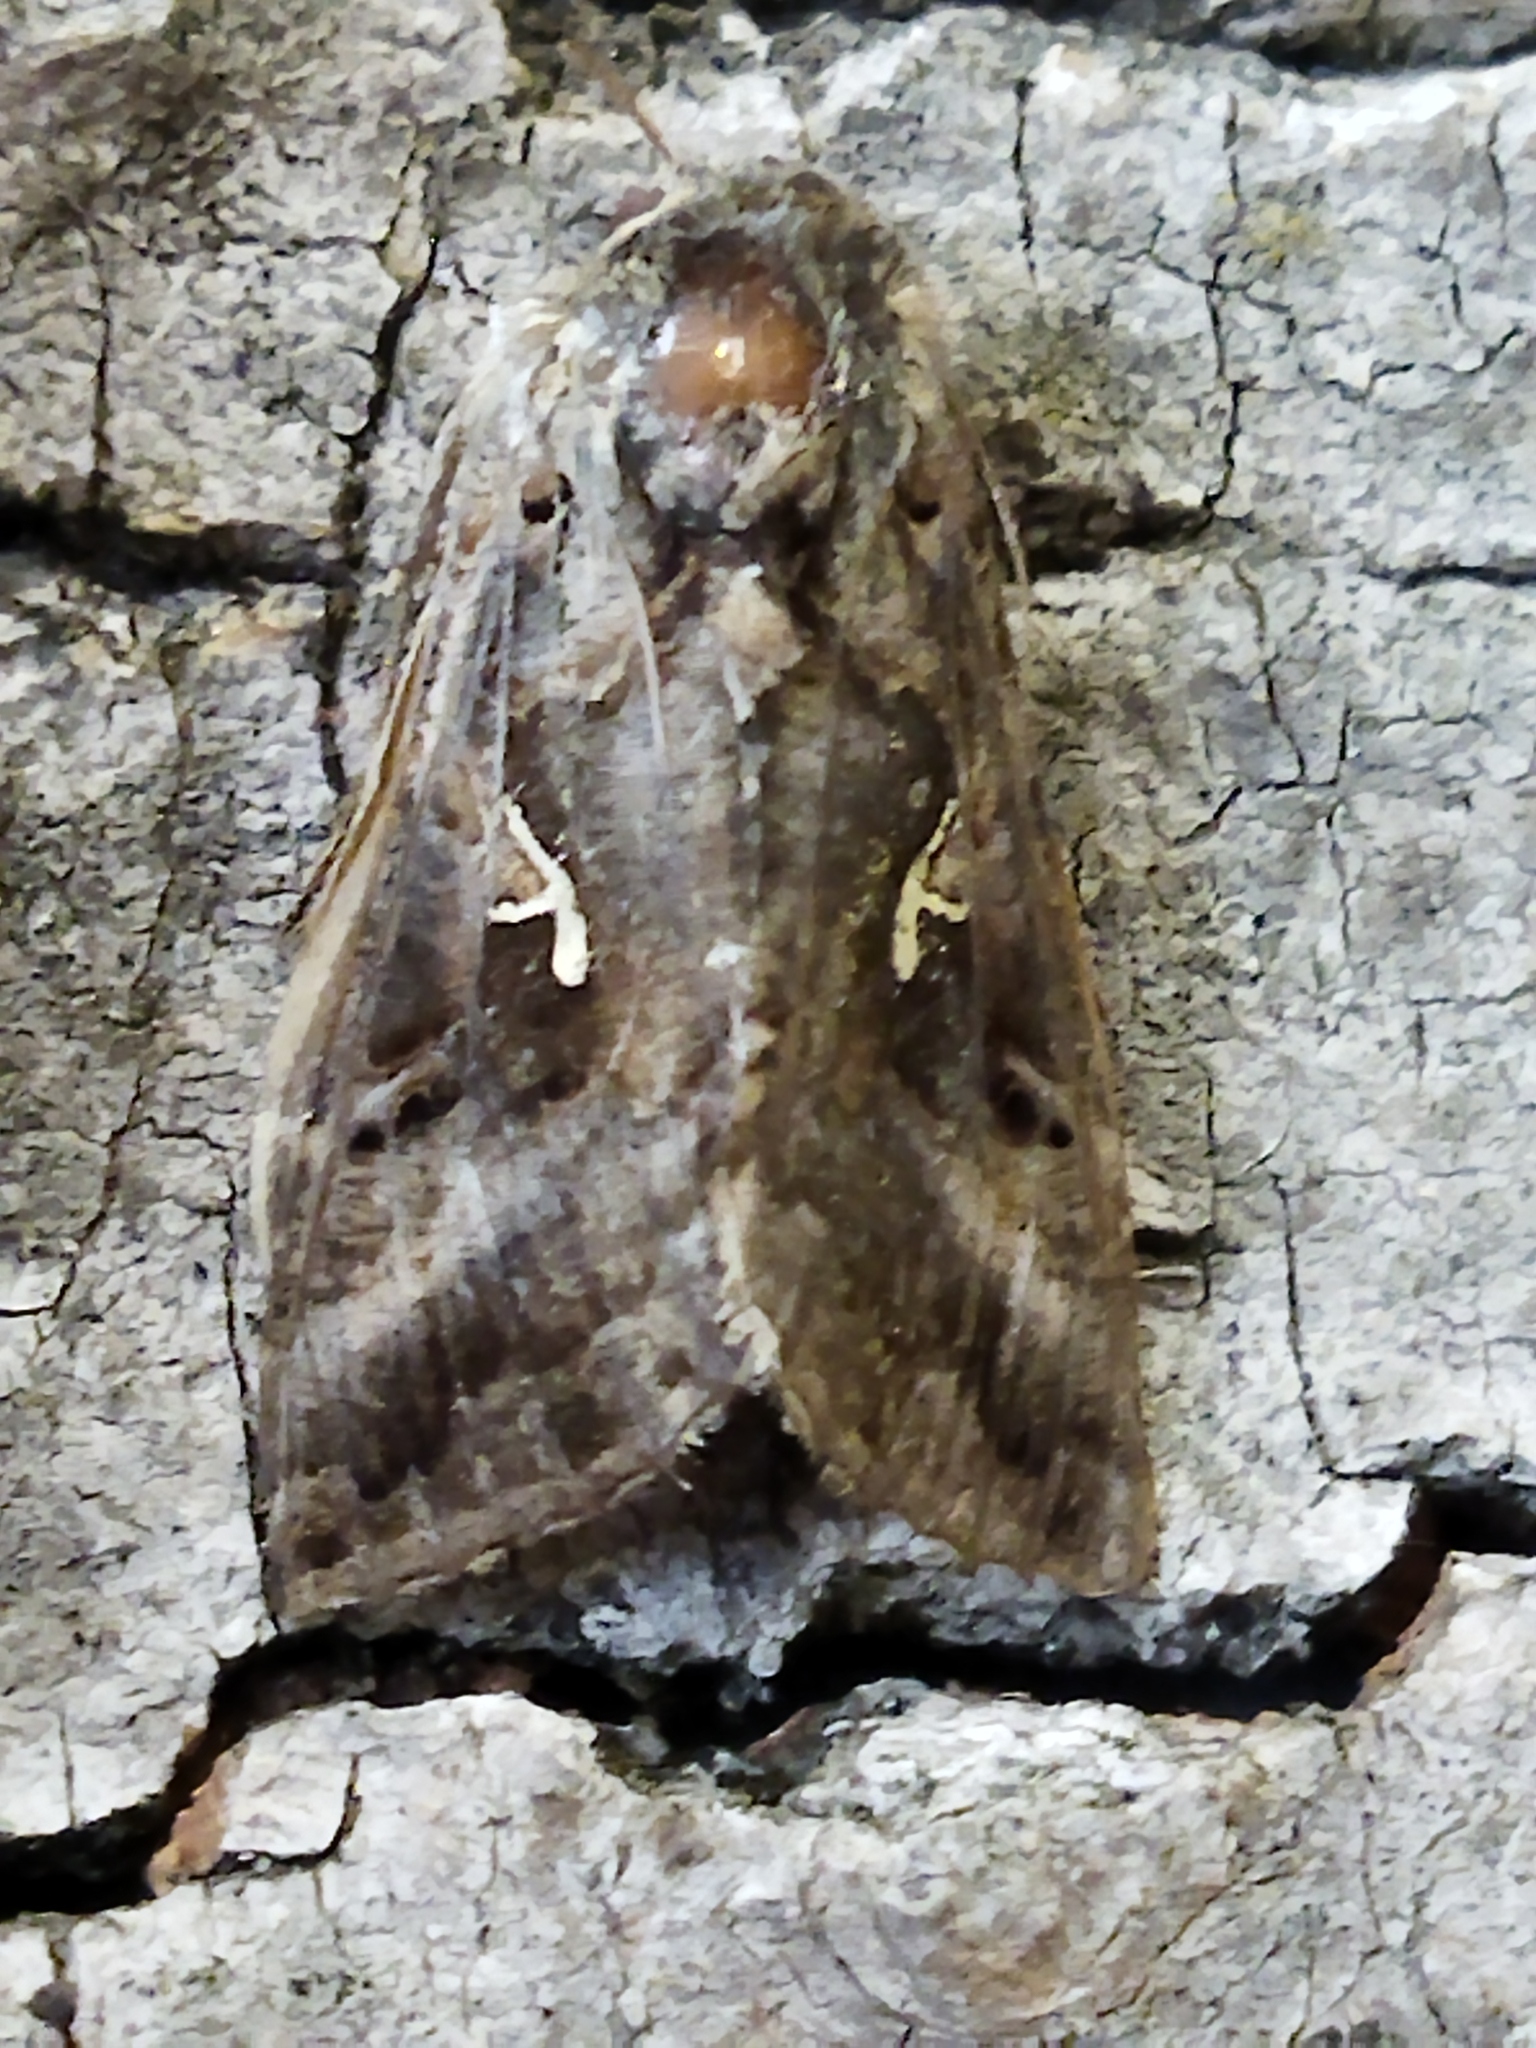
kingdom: Animalia
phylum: Arthropoda
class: Insecta
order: Lepidoptera
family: Noctuidae
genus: Autographa
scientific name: Autographa gamma
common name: Silver y
